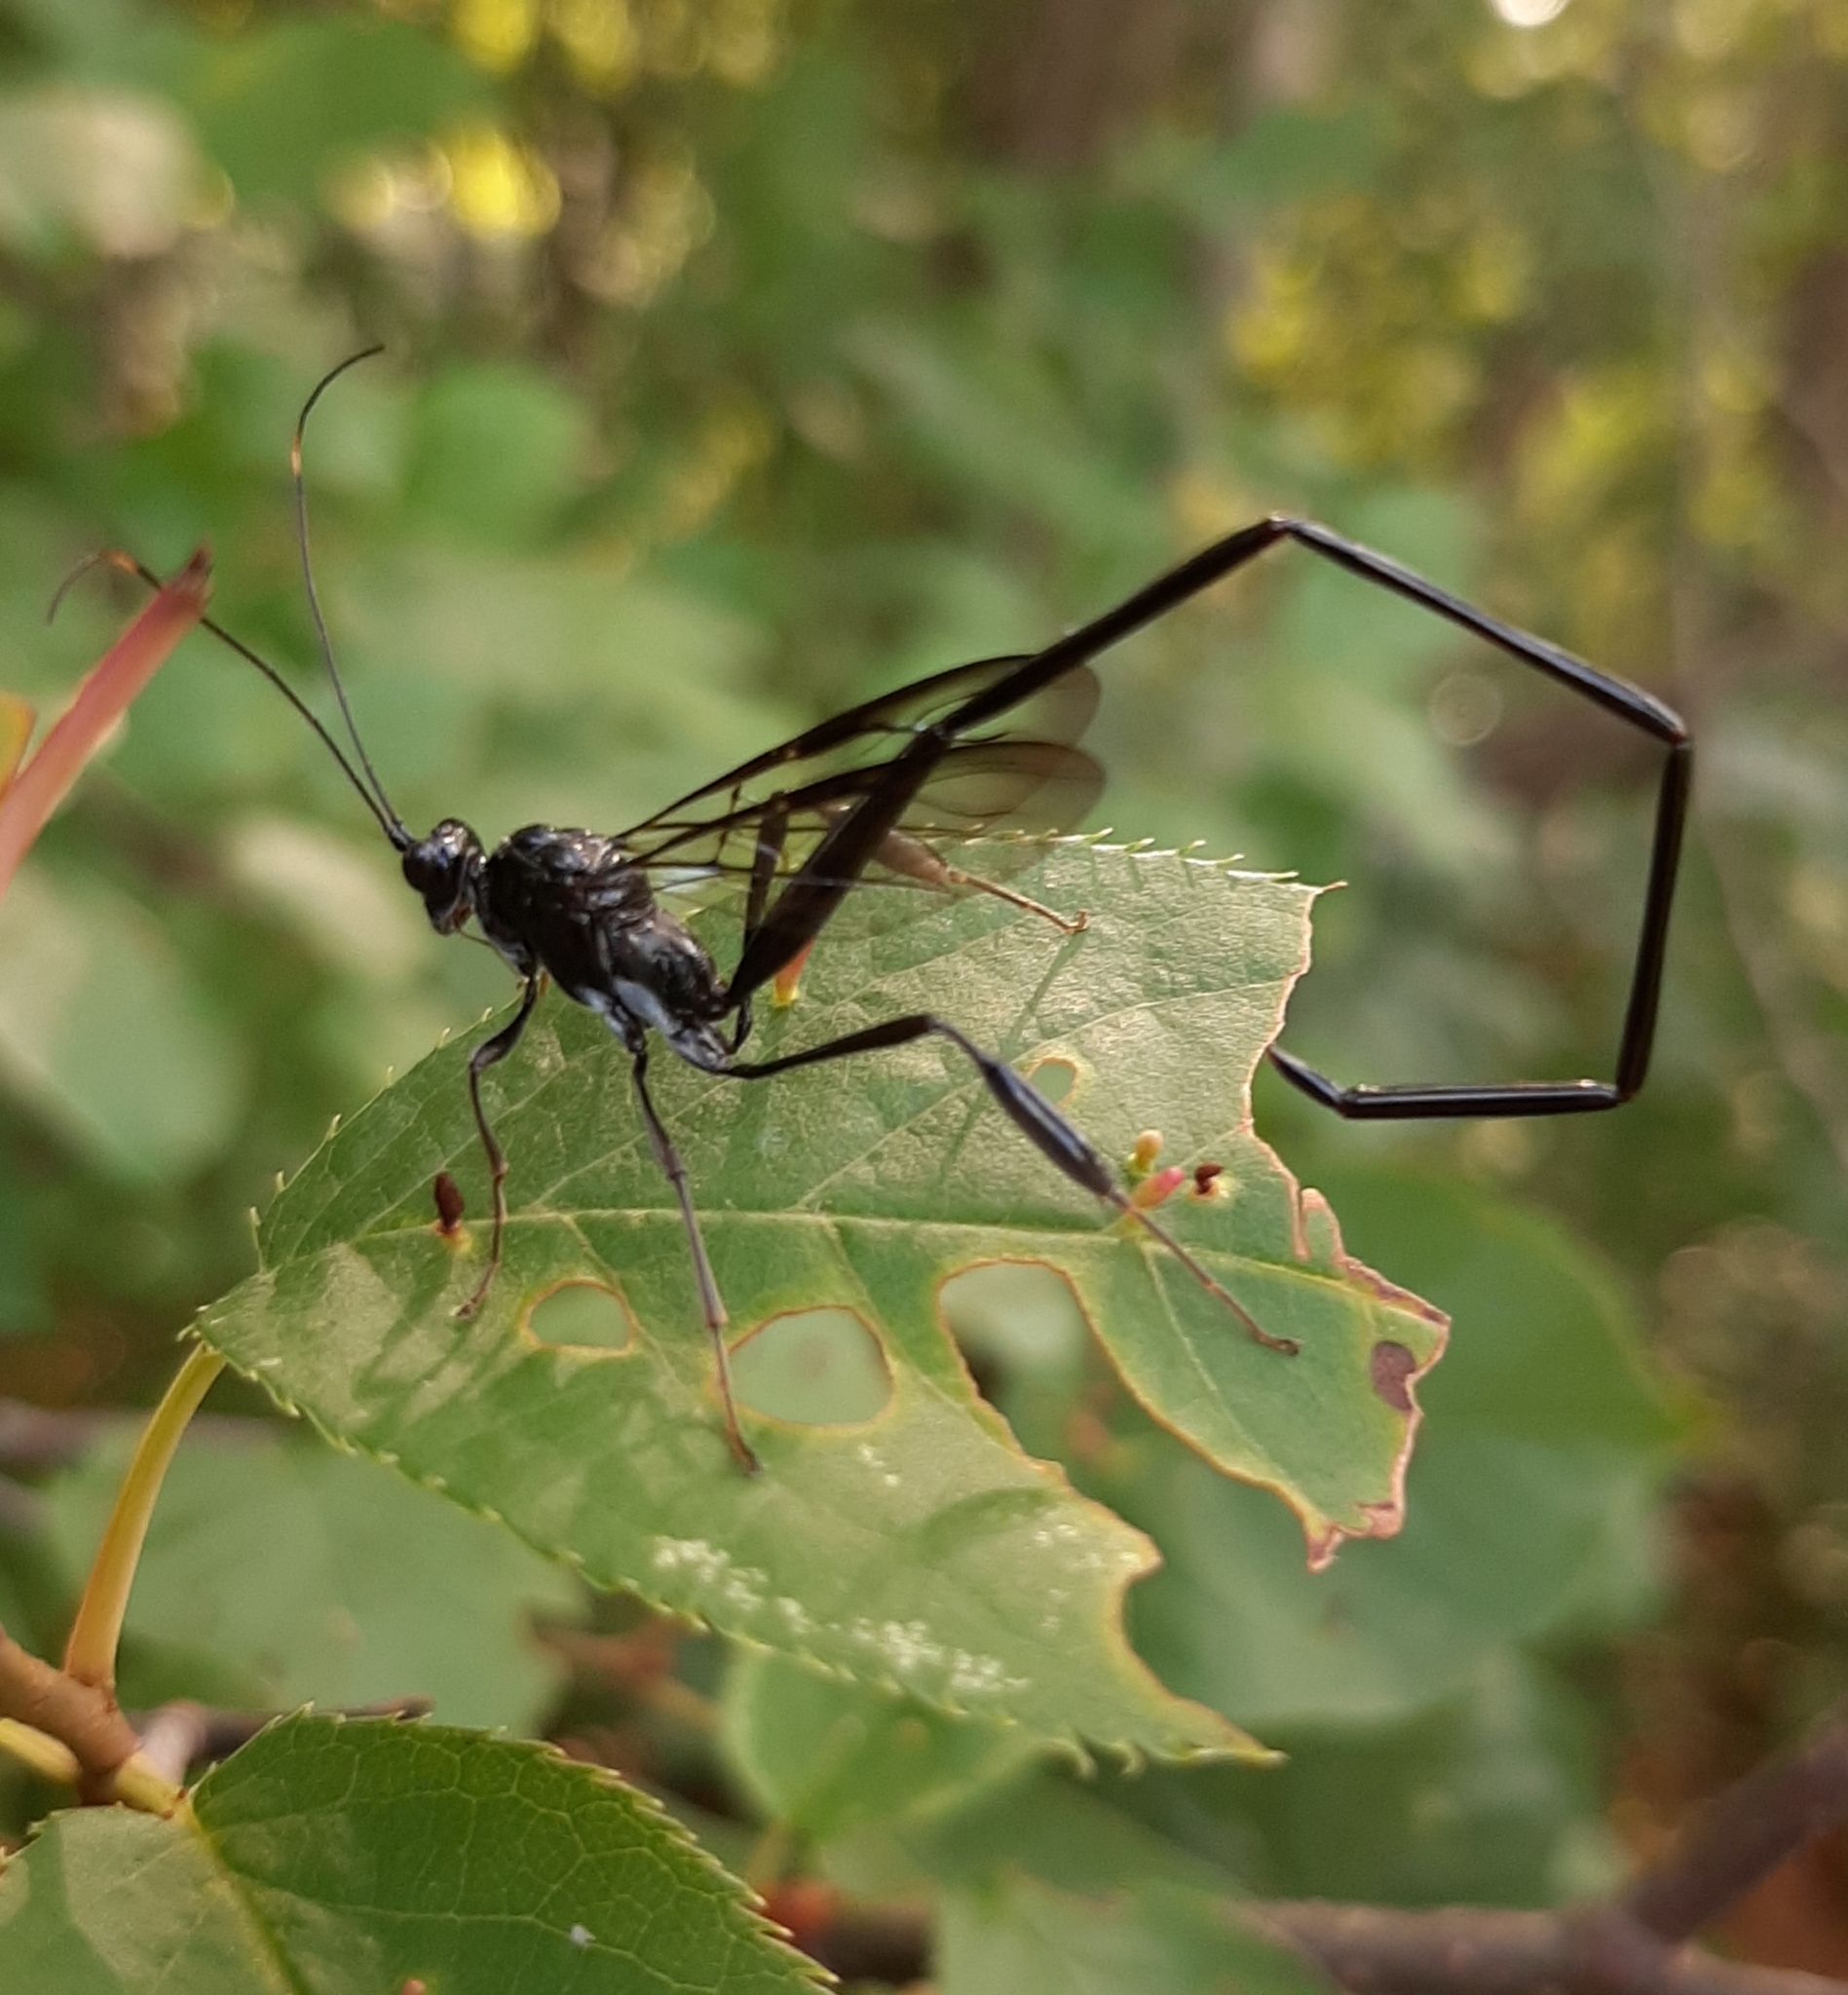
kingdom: Animalia
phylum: Arthropoda
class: Insecta
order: Hymenoptera
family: Pelecinidae
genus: Pelecinus
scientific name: Pelecinus polyturator
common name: American pelecinid wasp
